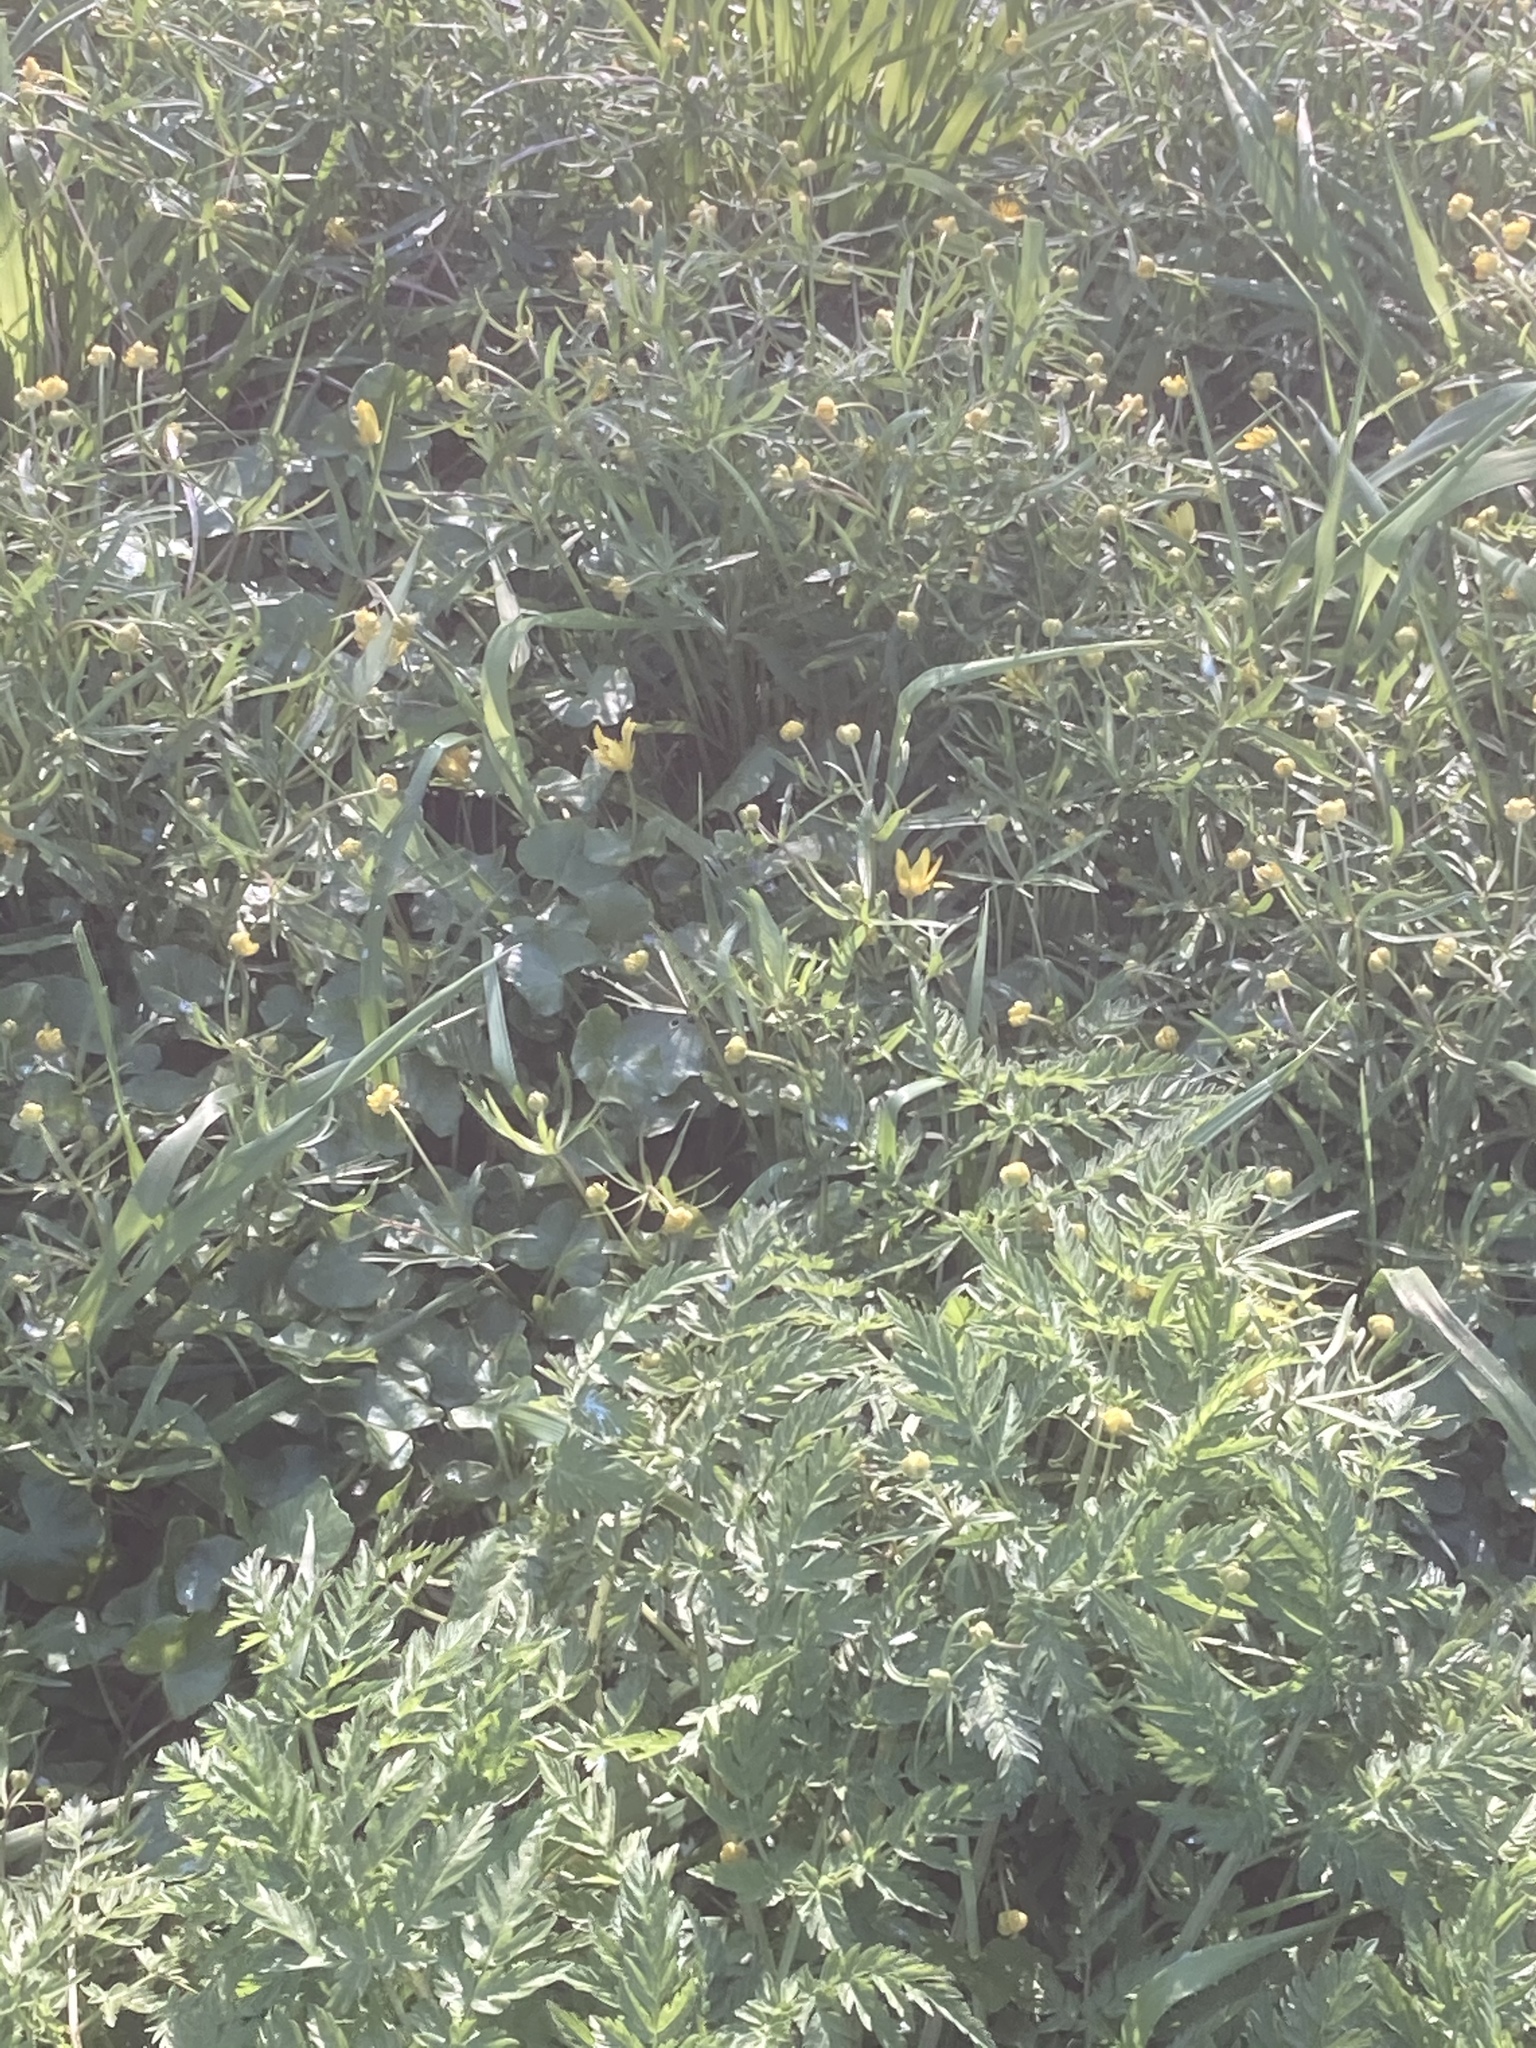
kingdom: Plantae
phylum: Tracheophyta
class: Magnoliopsida
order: Ranunculales
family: Ranunculaceae
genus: Ranunculus
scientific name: Ranunculus auricomus
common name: Goldilocks buttercup
